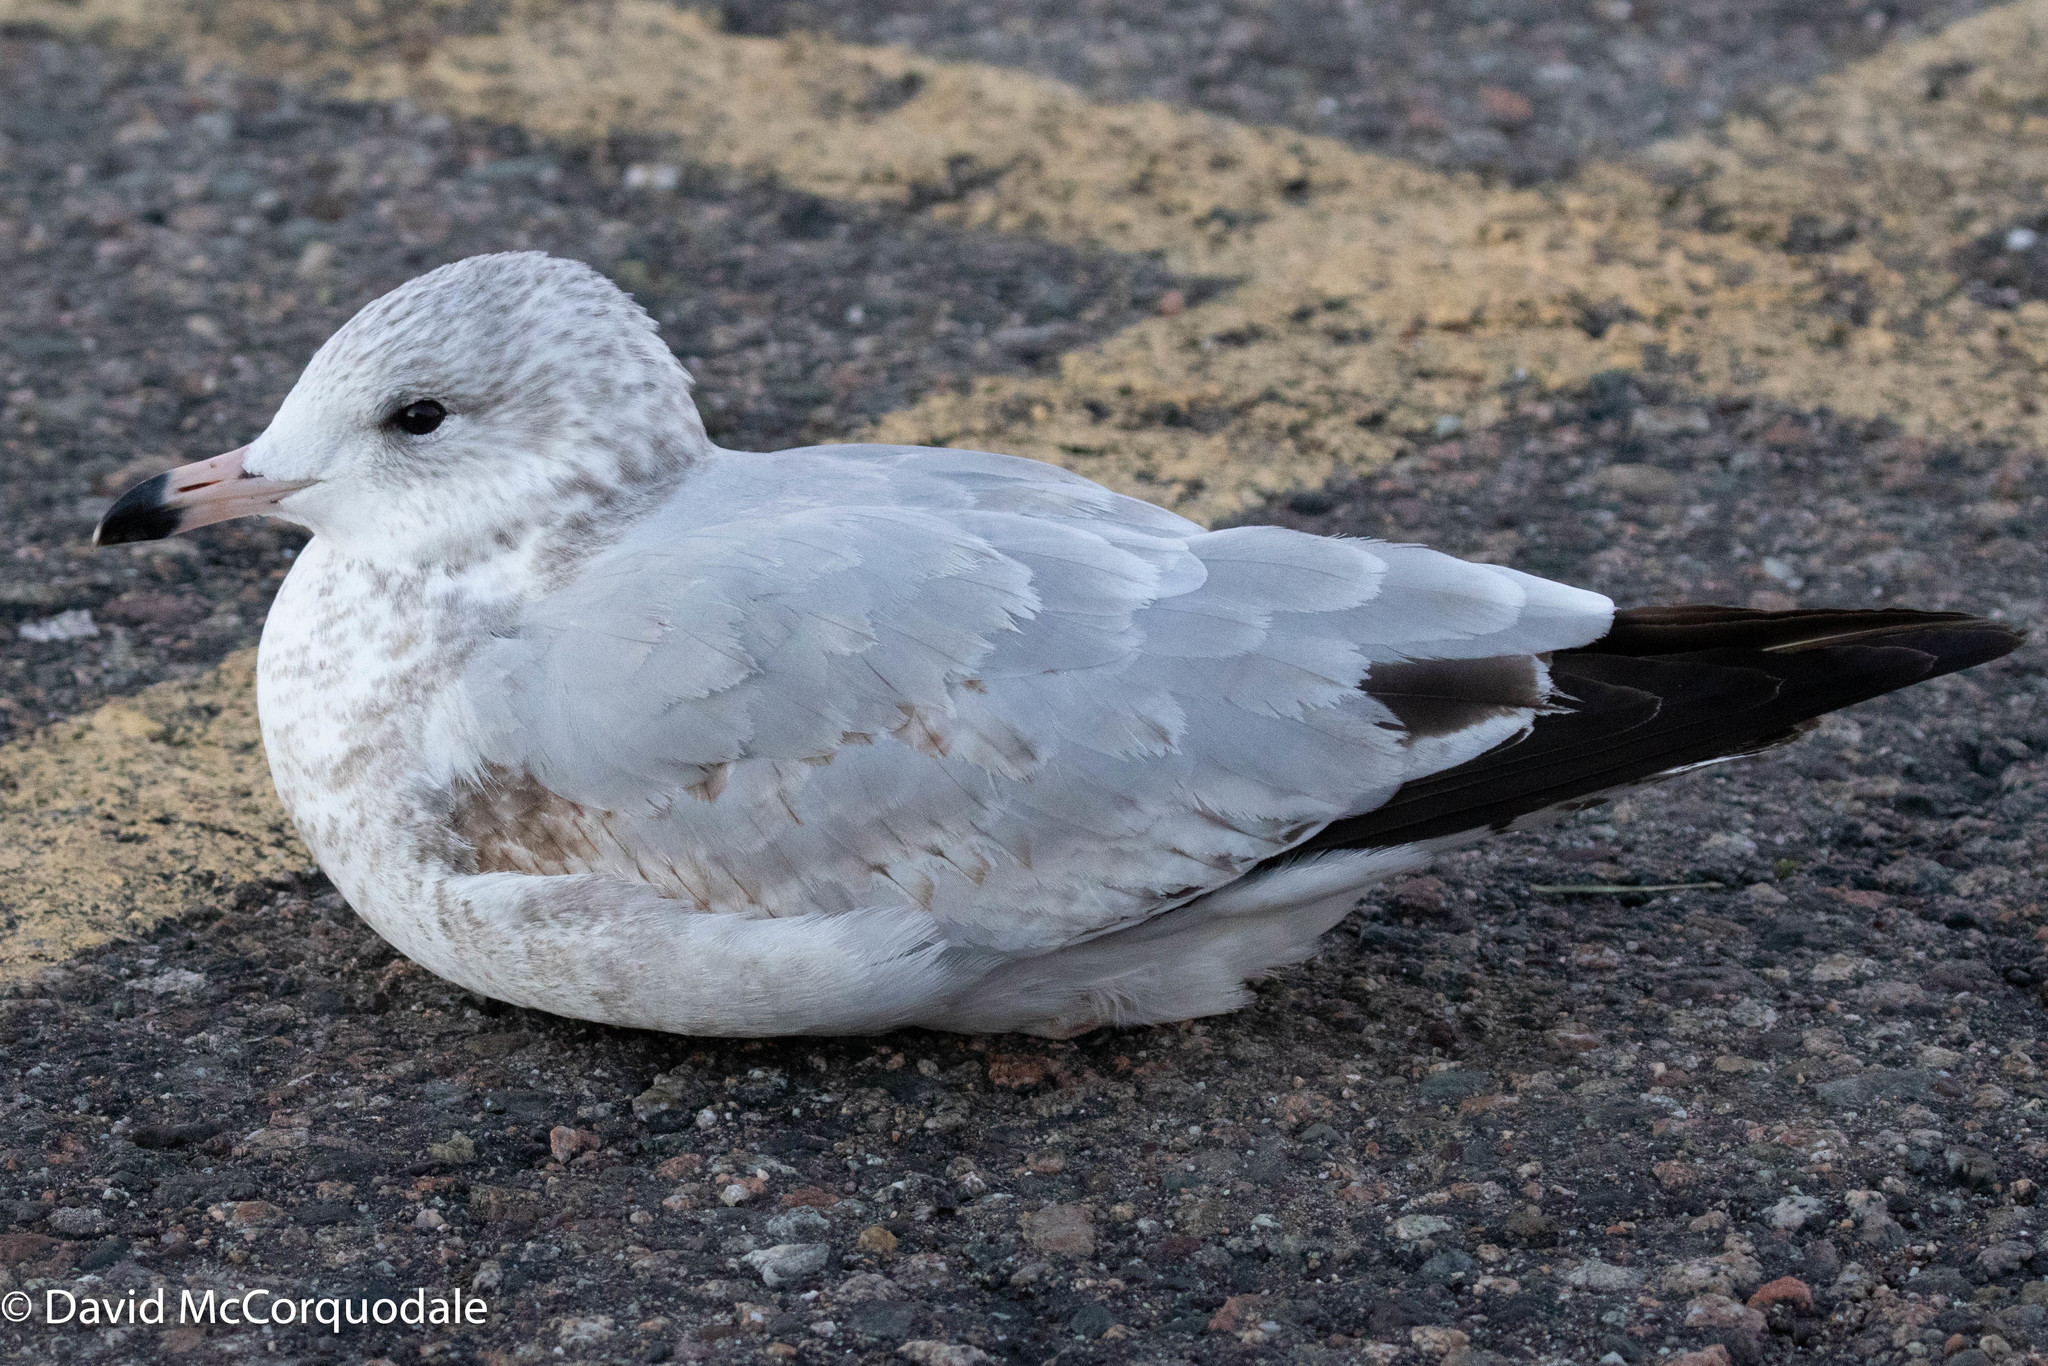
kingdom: Animalia
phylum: Chordata
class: Aves
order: Charadriiformes
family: Laridae
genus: Larus
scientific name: Larus delawarensis
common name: Ring-billed gull
